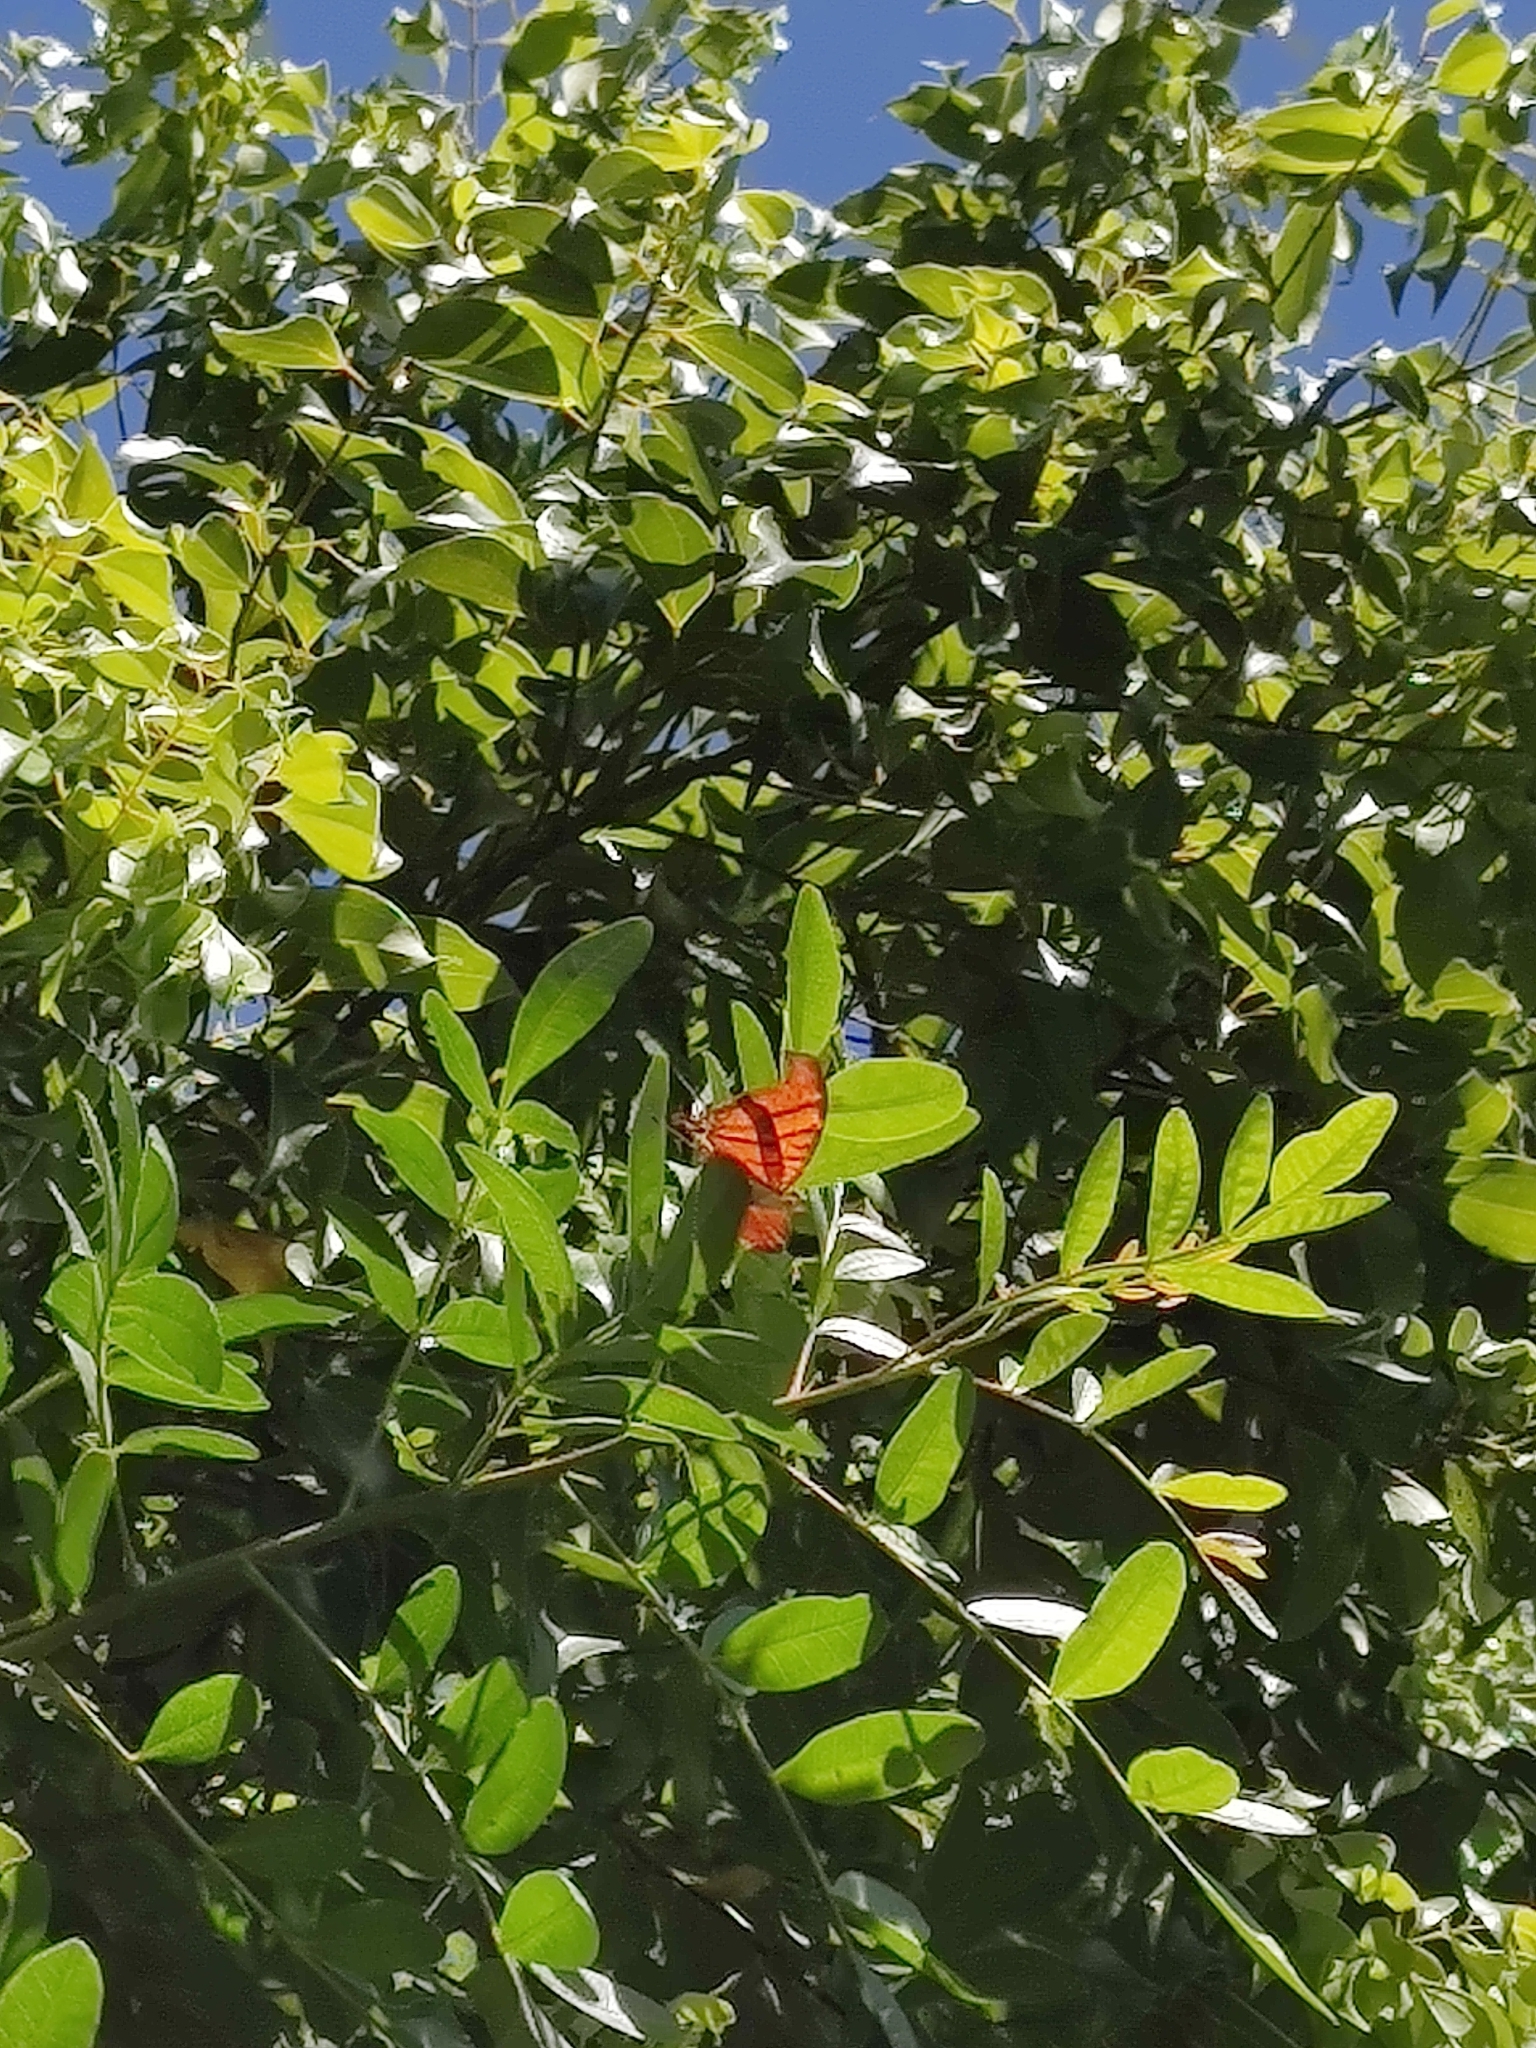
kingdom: Animalia
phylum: Arthropoda
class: Insecta
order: Lepidoptera
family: Nymphalidae
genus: Marpesia
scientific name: Marpesia petreus
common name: Red dagger wing
